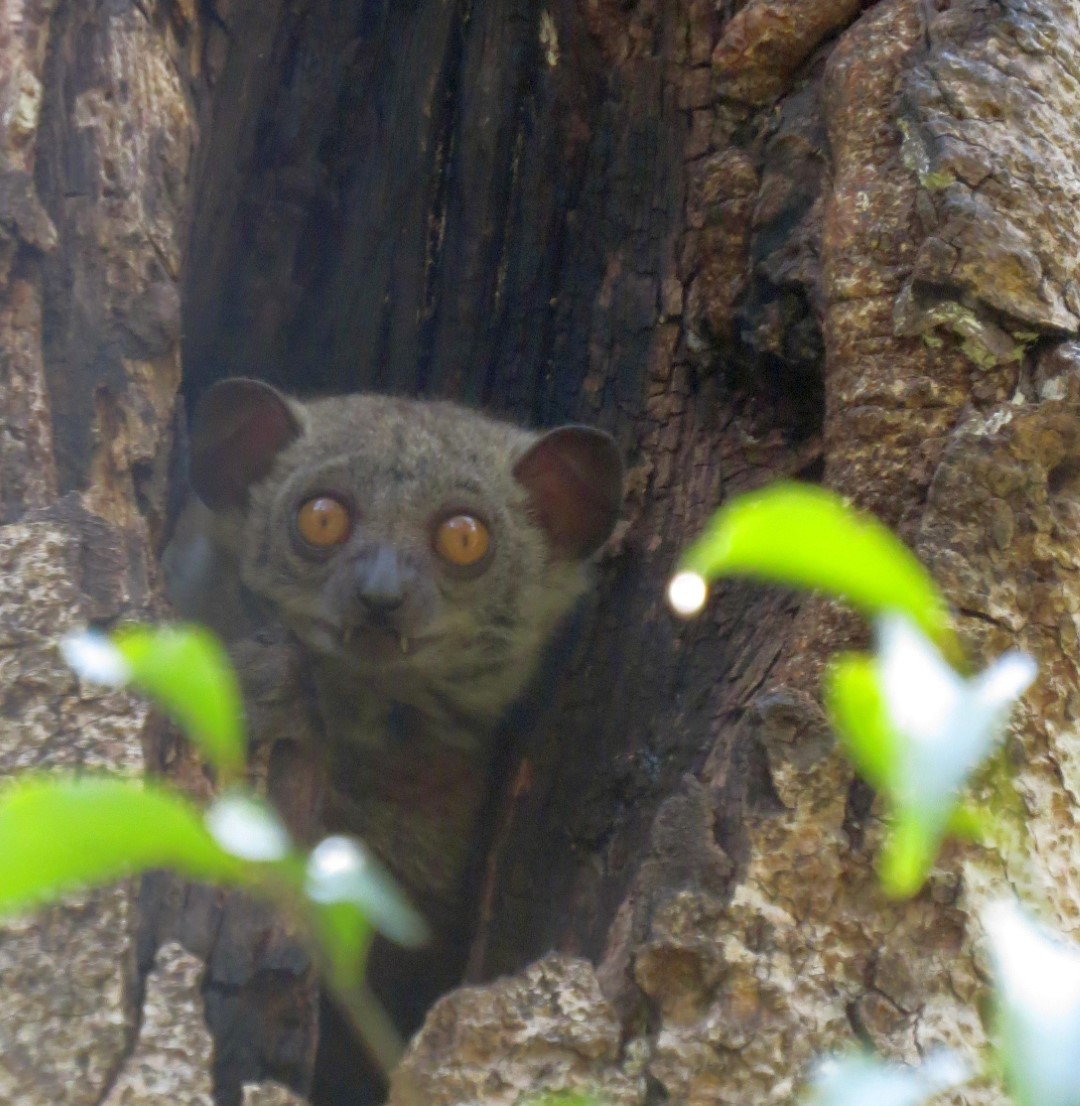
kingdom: Animalia
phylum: Chordata
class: Mammalia
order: Primates
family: Lepilemuridae
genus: Lepilemur
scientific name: Lepilemur randrianasoloi
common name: Bemaraha sportive lemur
